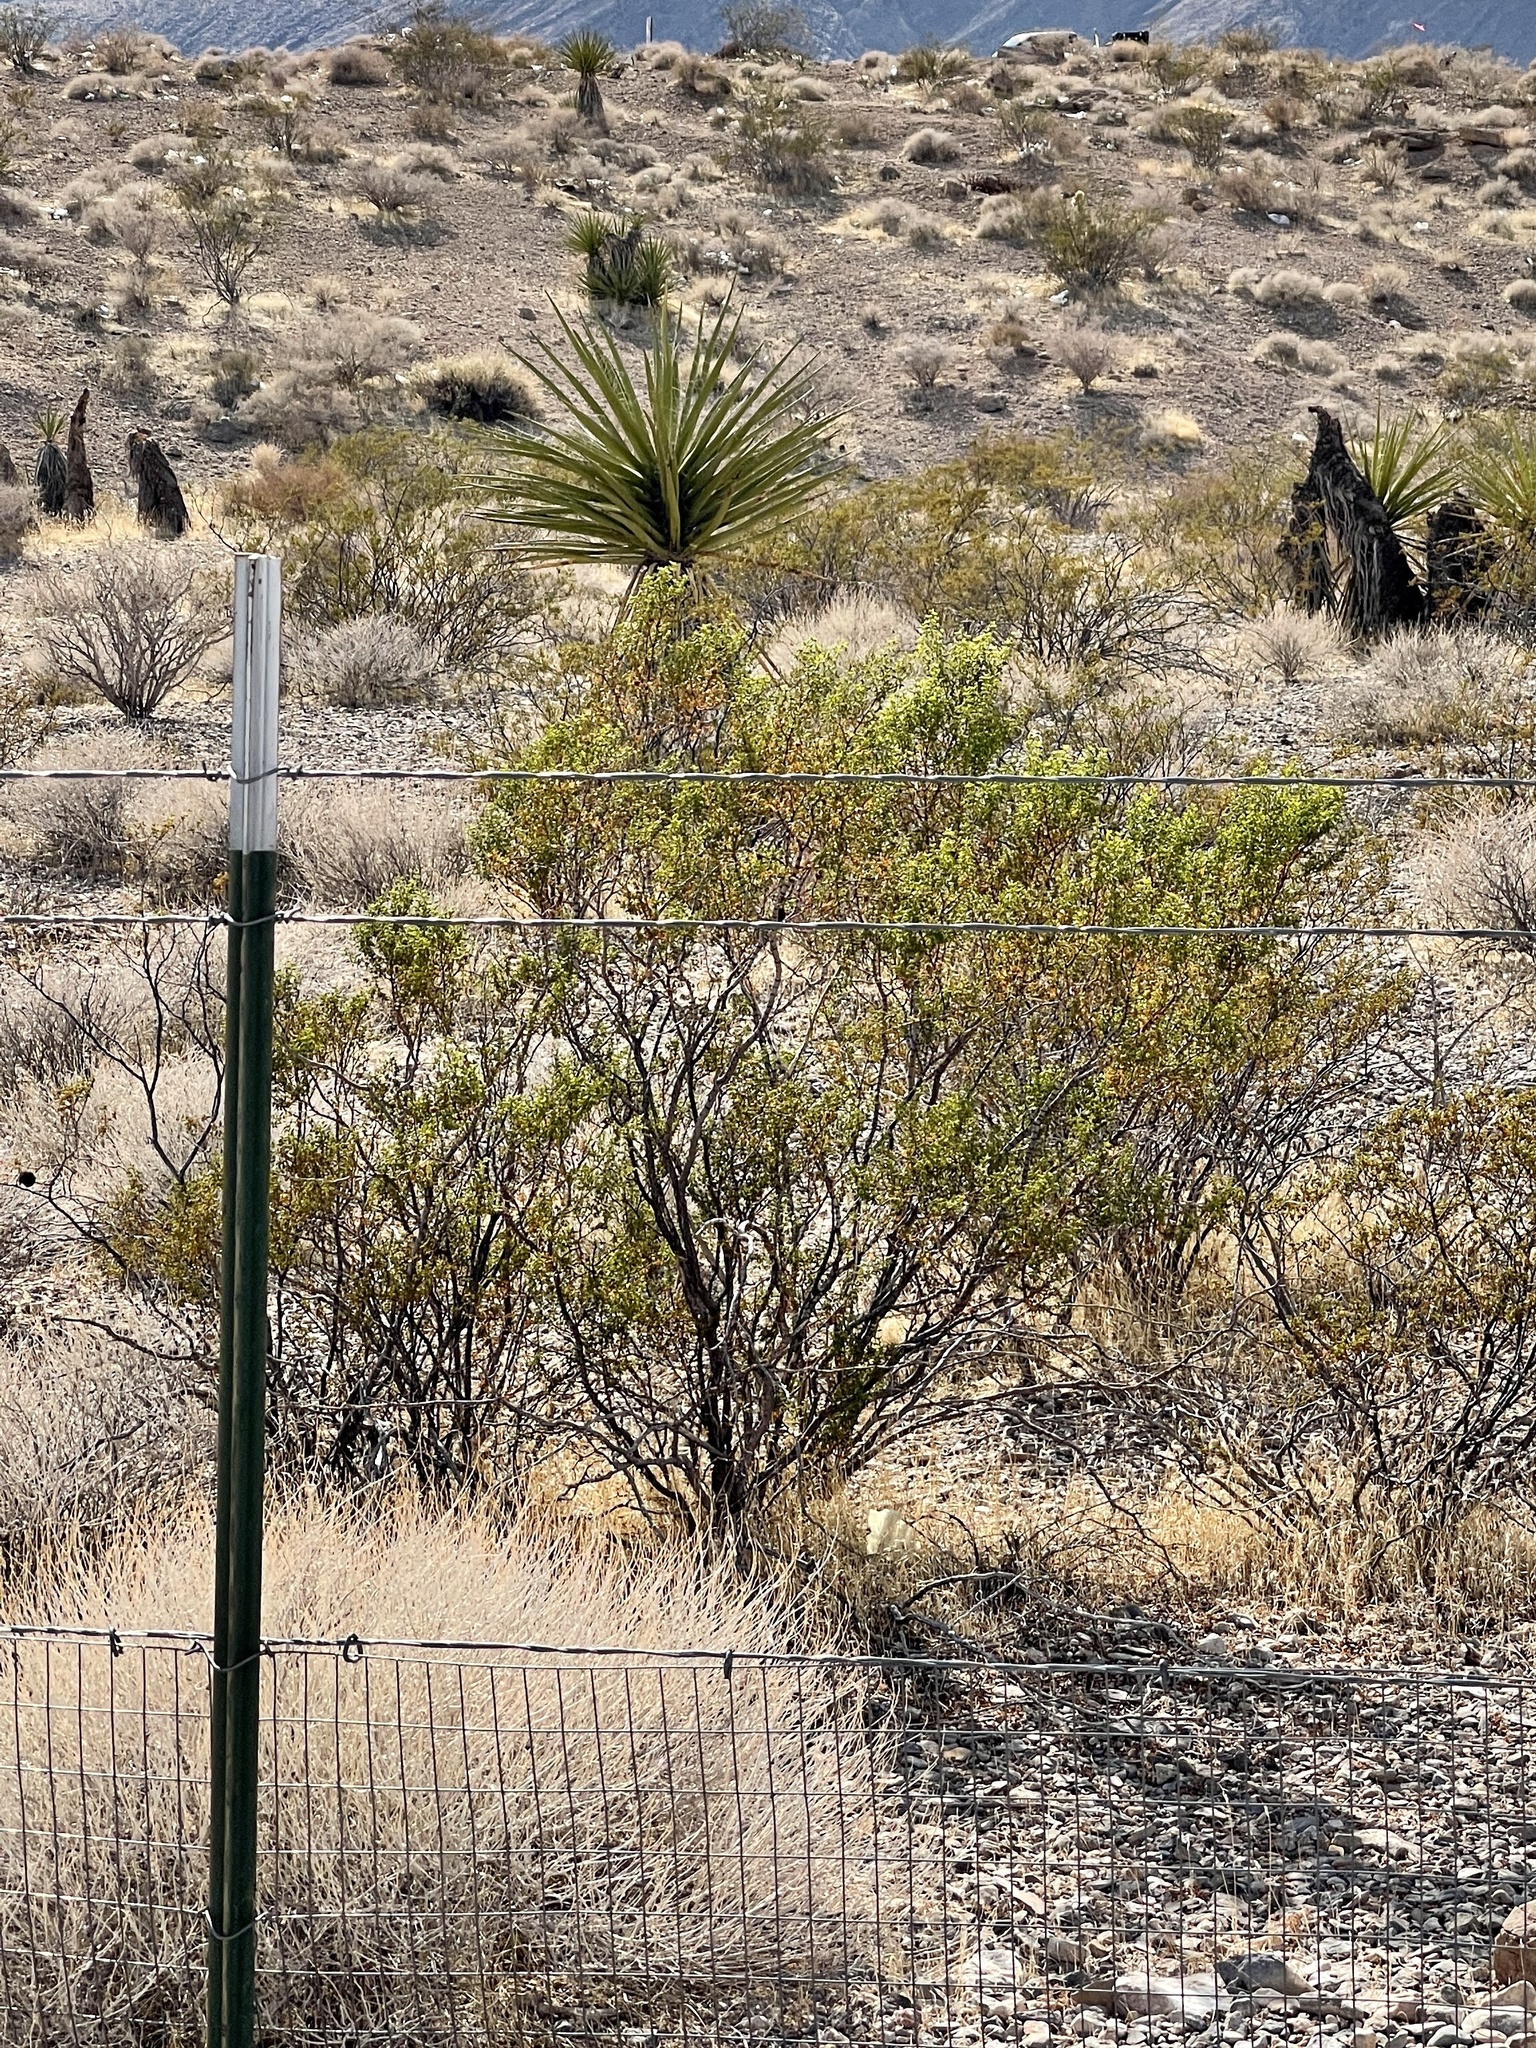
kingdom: Plantae
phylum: Tracheophyta
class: Magnoliopsida
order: Zygophyllales
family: Zygophyllaceae
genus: Larrea
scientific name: Larrea tridentata
